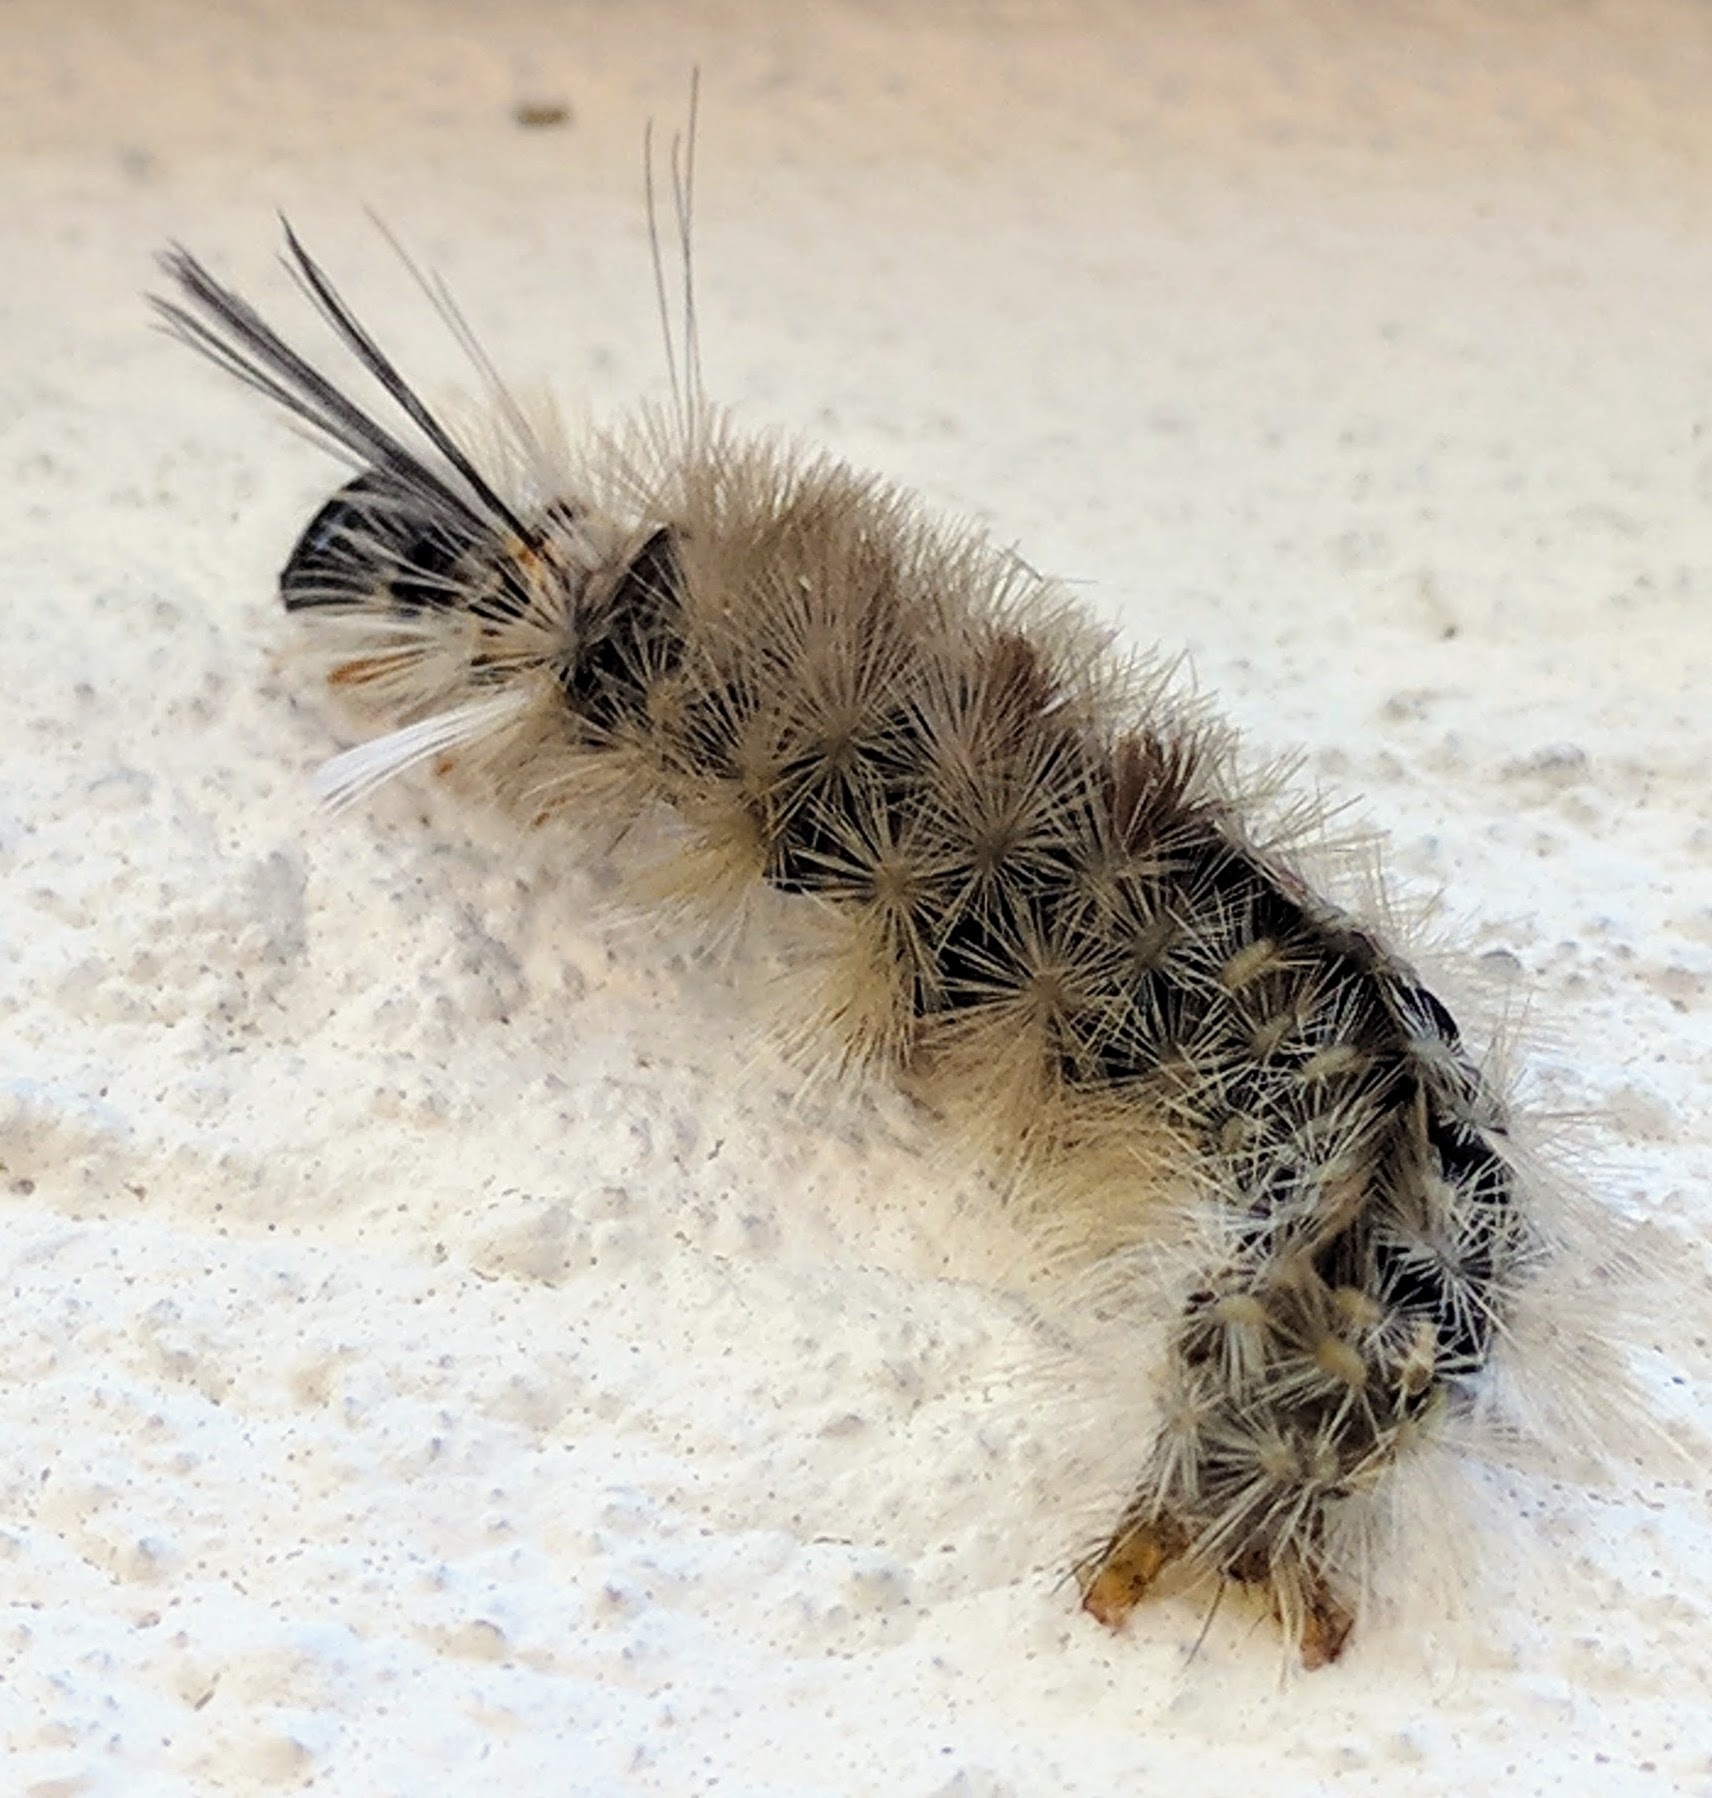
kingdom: Animalia
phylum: Arthropoda
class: Insecta
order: Lepidoptera
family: Erebidae
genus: Halysidota
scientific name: Halysidota tessellaris
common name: Banded tussock moth
